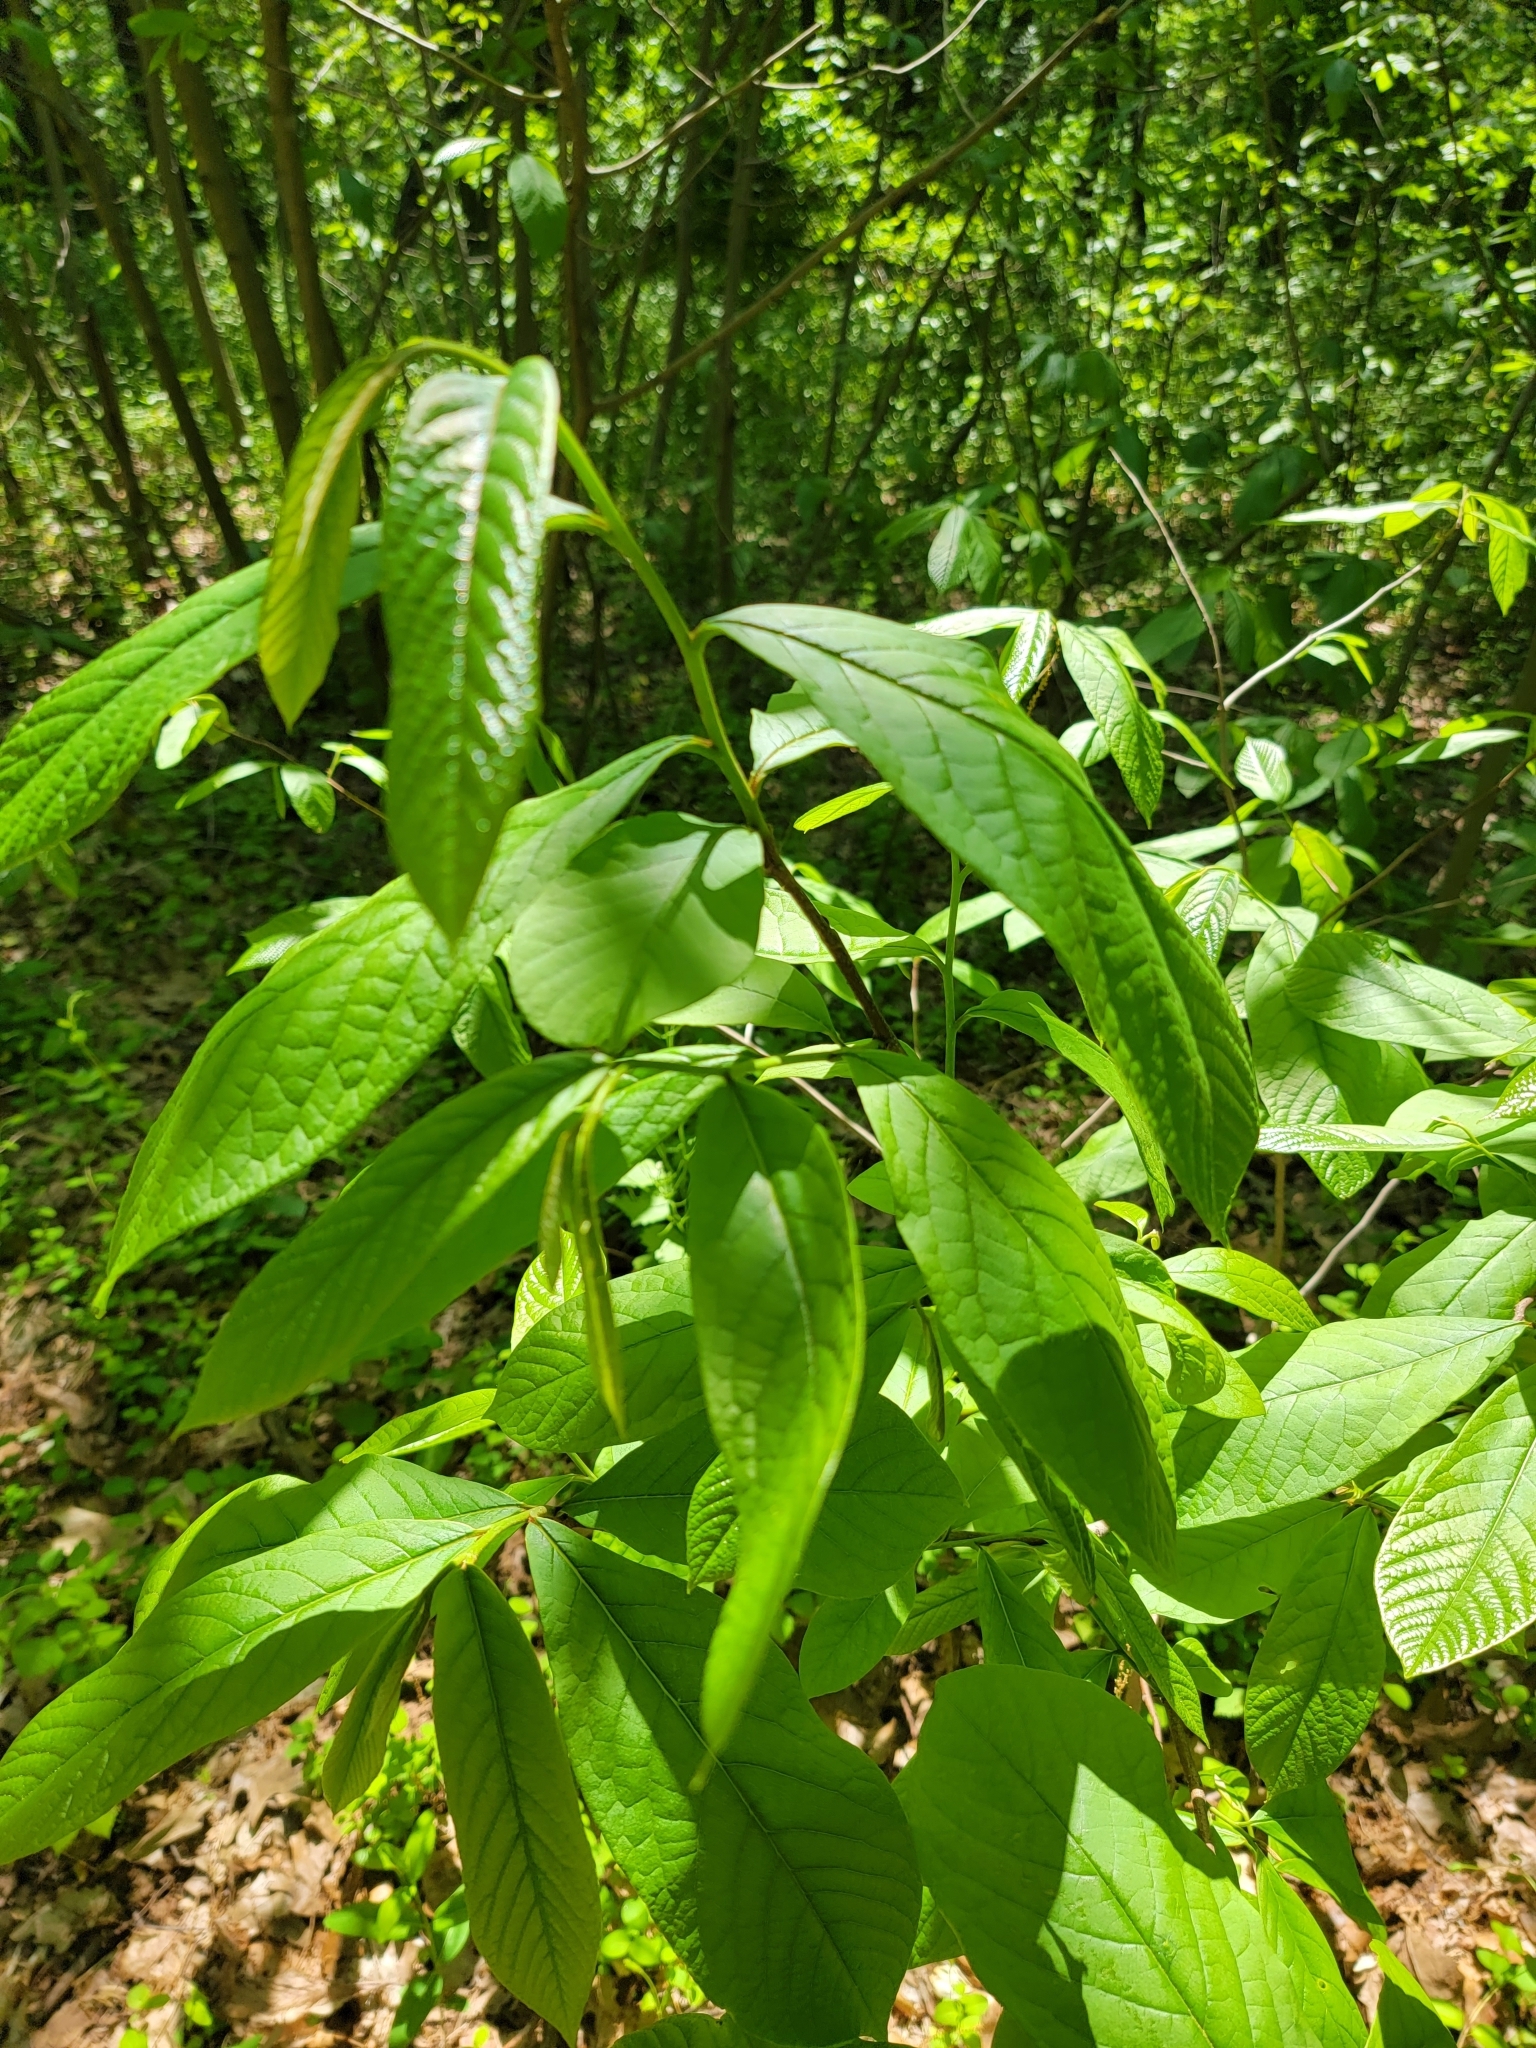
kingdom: Plantae
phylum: Tracheophyta
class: Magnoliopsida
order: Magnoliales
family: Annonaceae
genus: Asimina
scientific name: Asimina triloba
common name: Dog-banana
